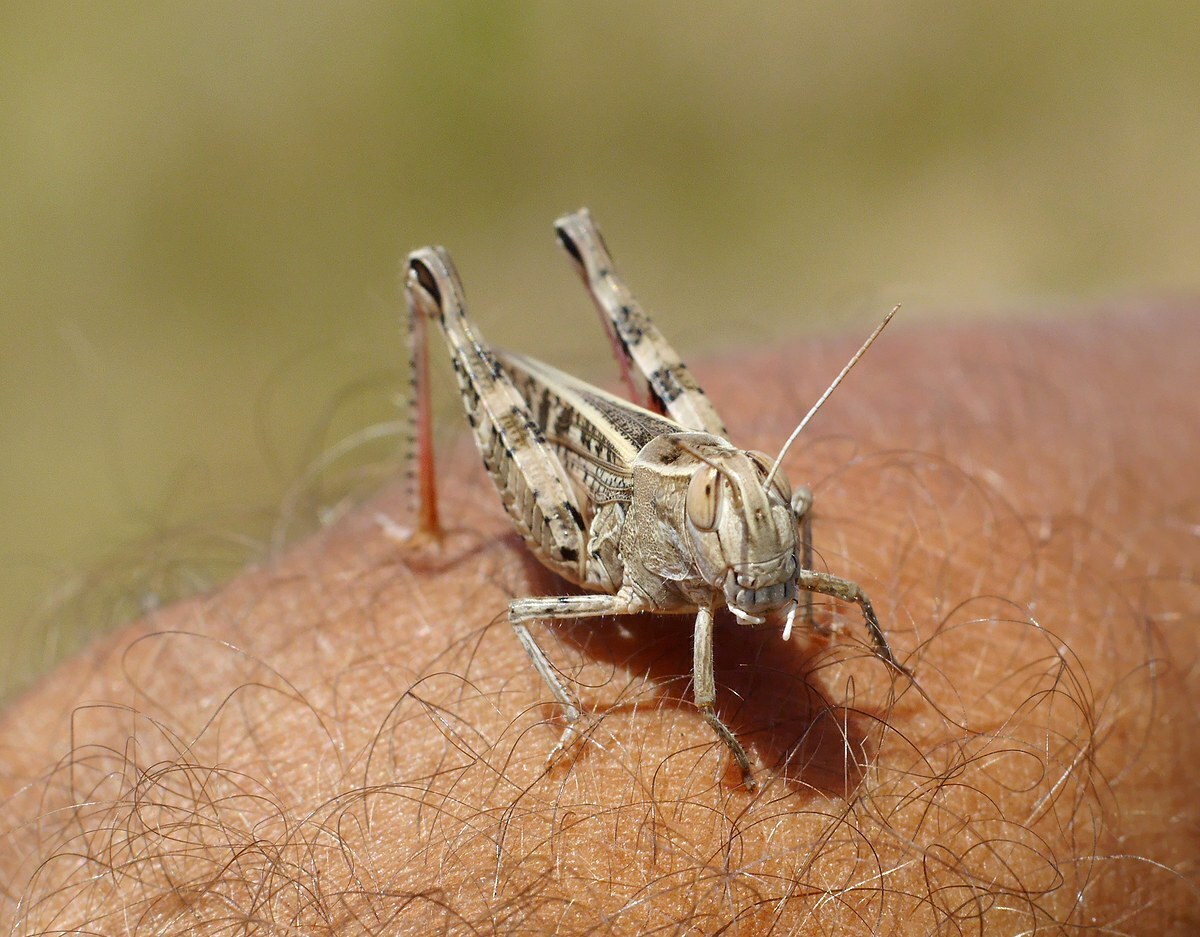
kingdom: Animalia
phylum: Arthropoda
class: Insecta
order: Orthoptera
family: Acrididae
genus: Calliptamus
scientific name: Calliptamus italicus
